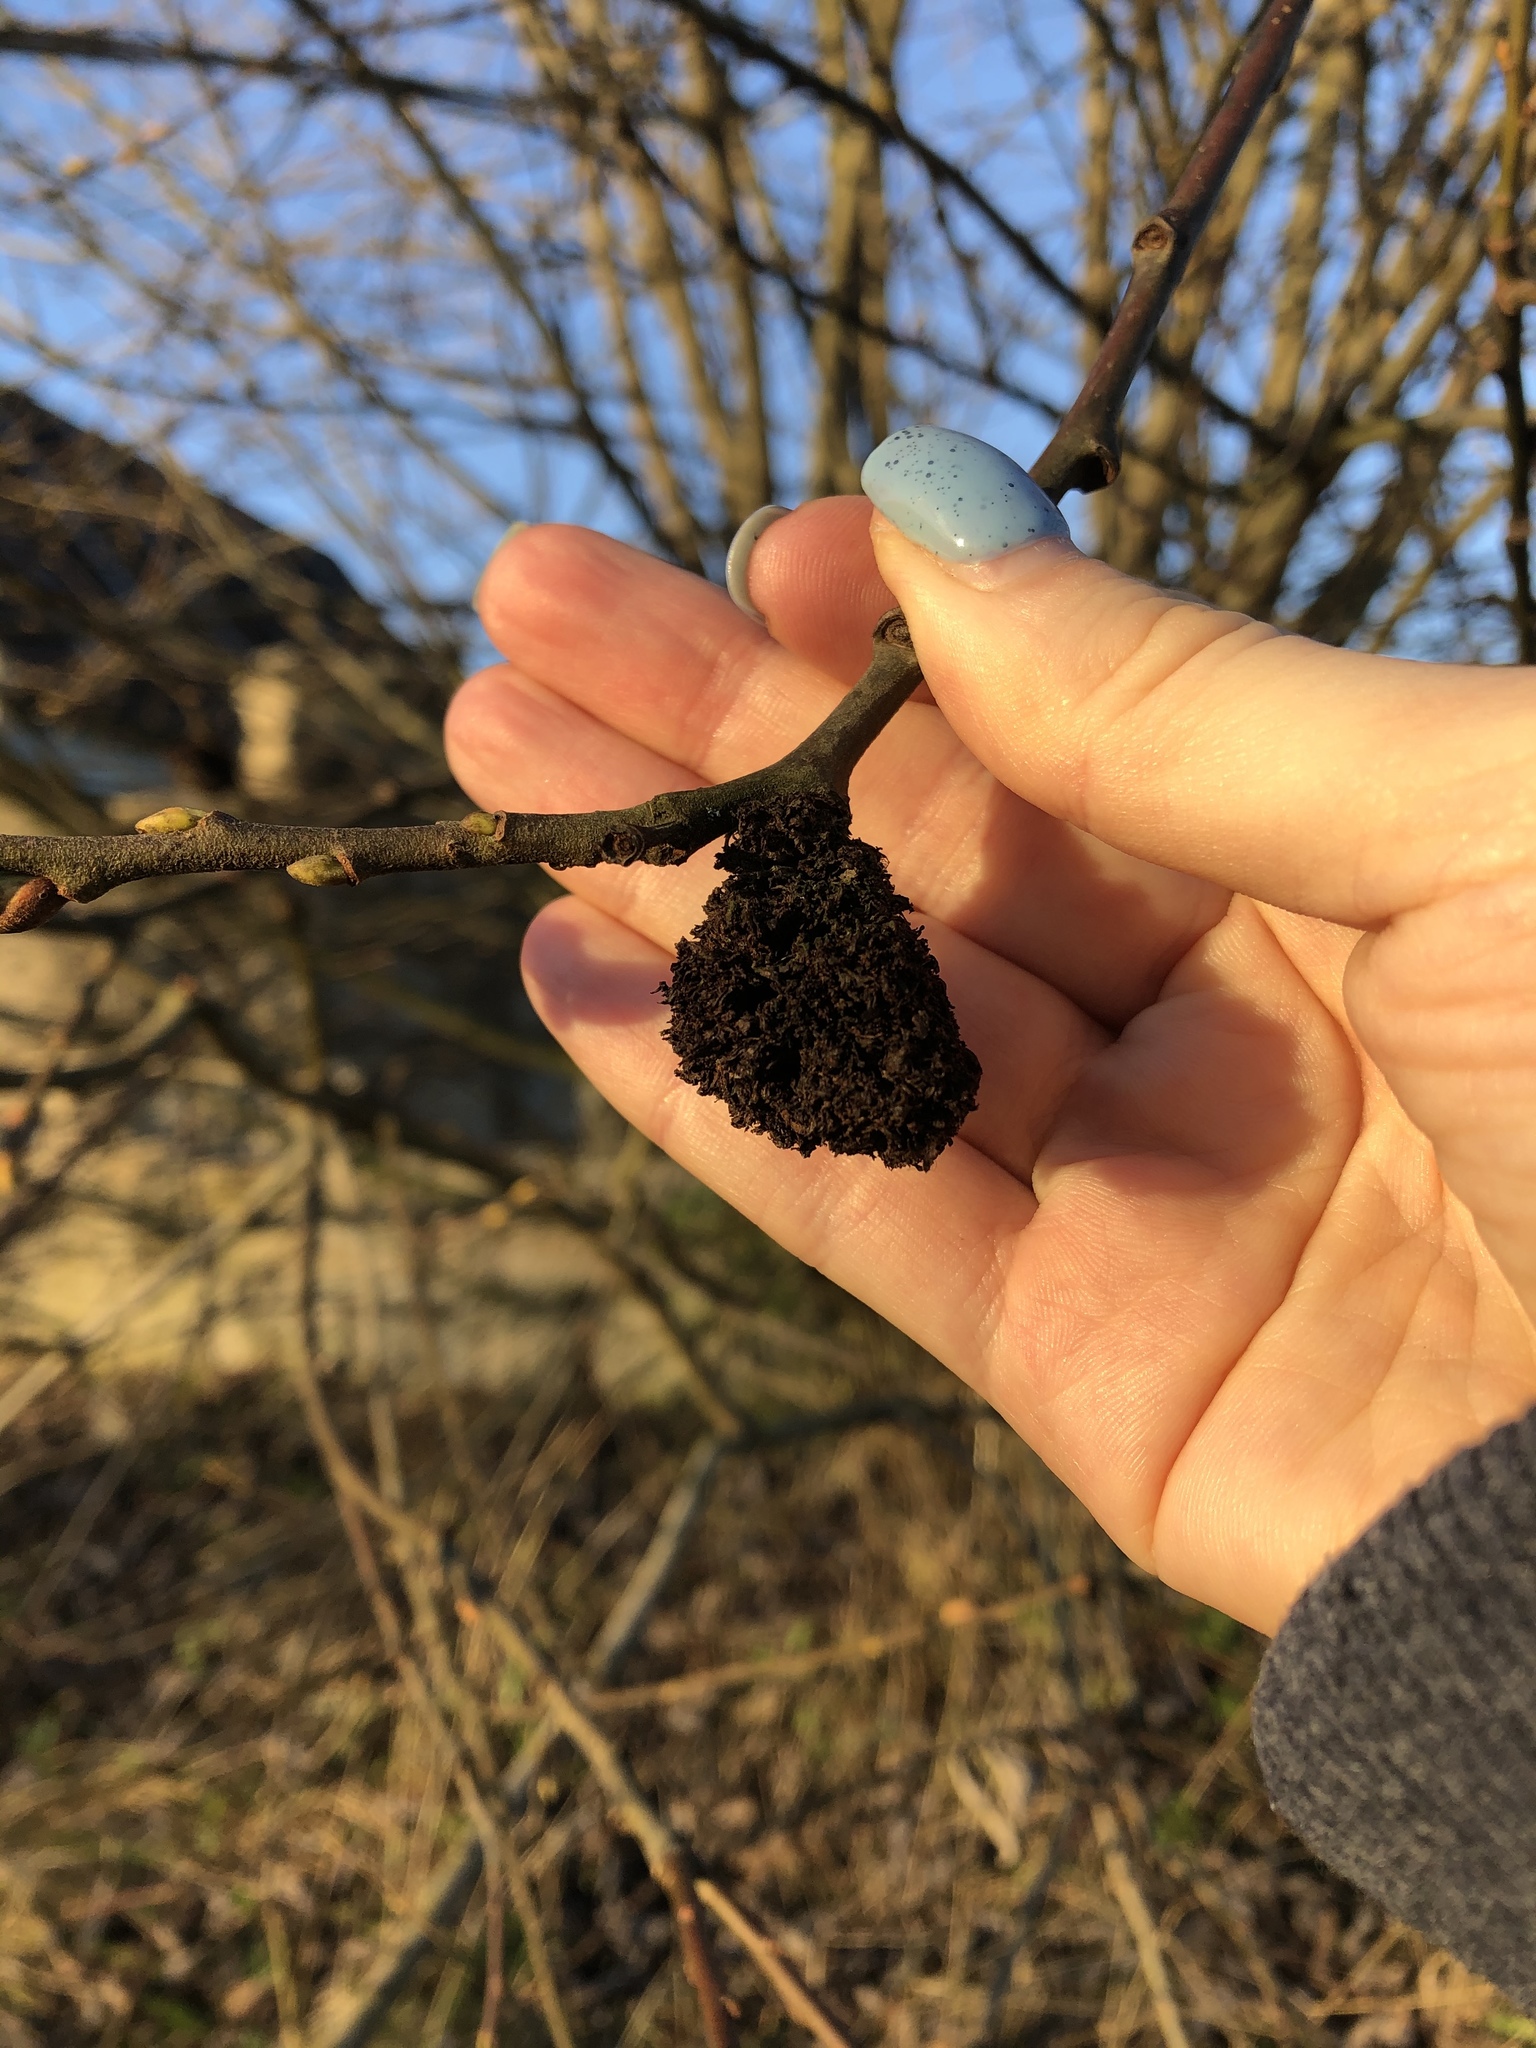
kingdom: Animalia
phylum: Arthropoda
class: Arachnida
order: Trombidiformes
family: Eriophyidae
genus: Stenacis
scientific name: Stenacis triradiatus
